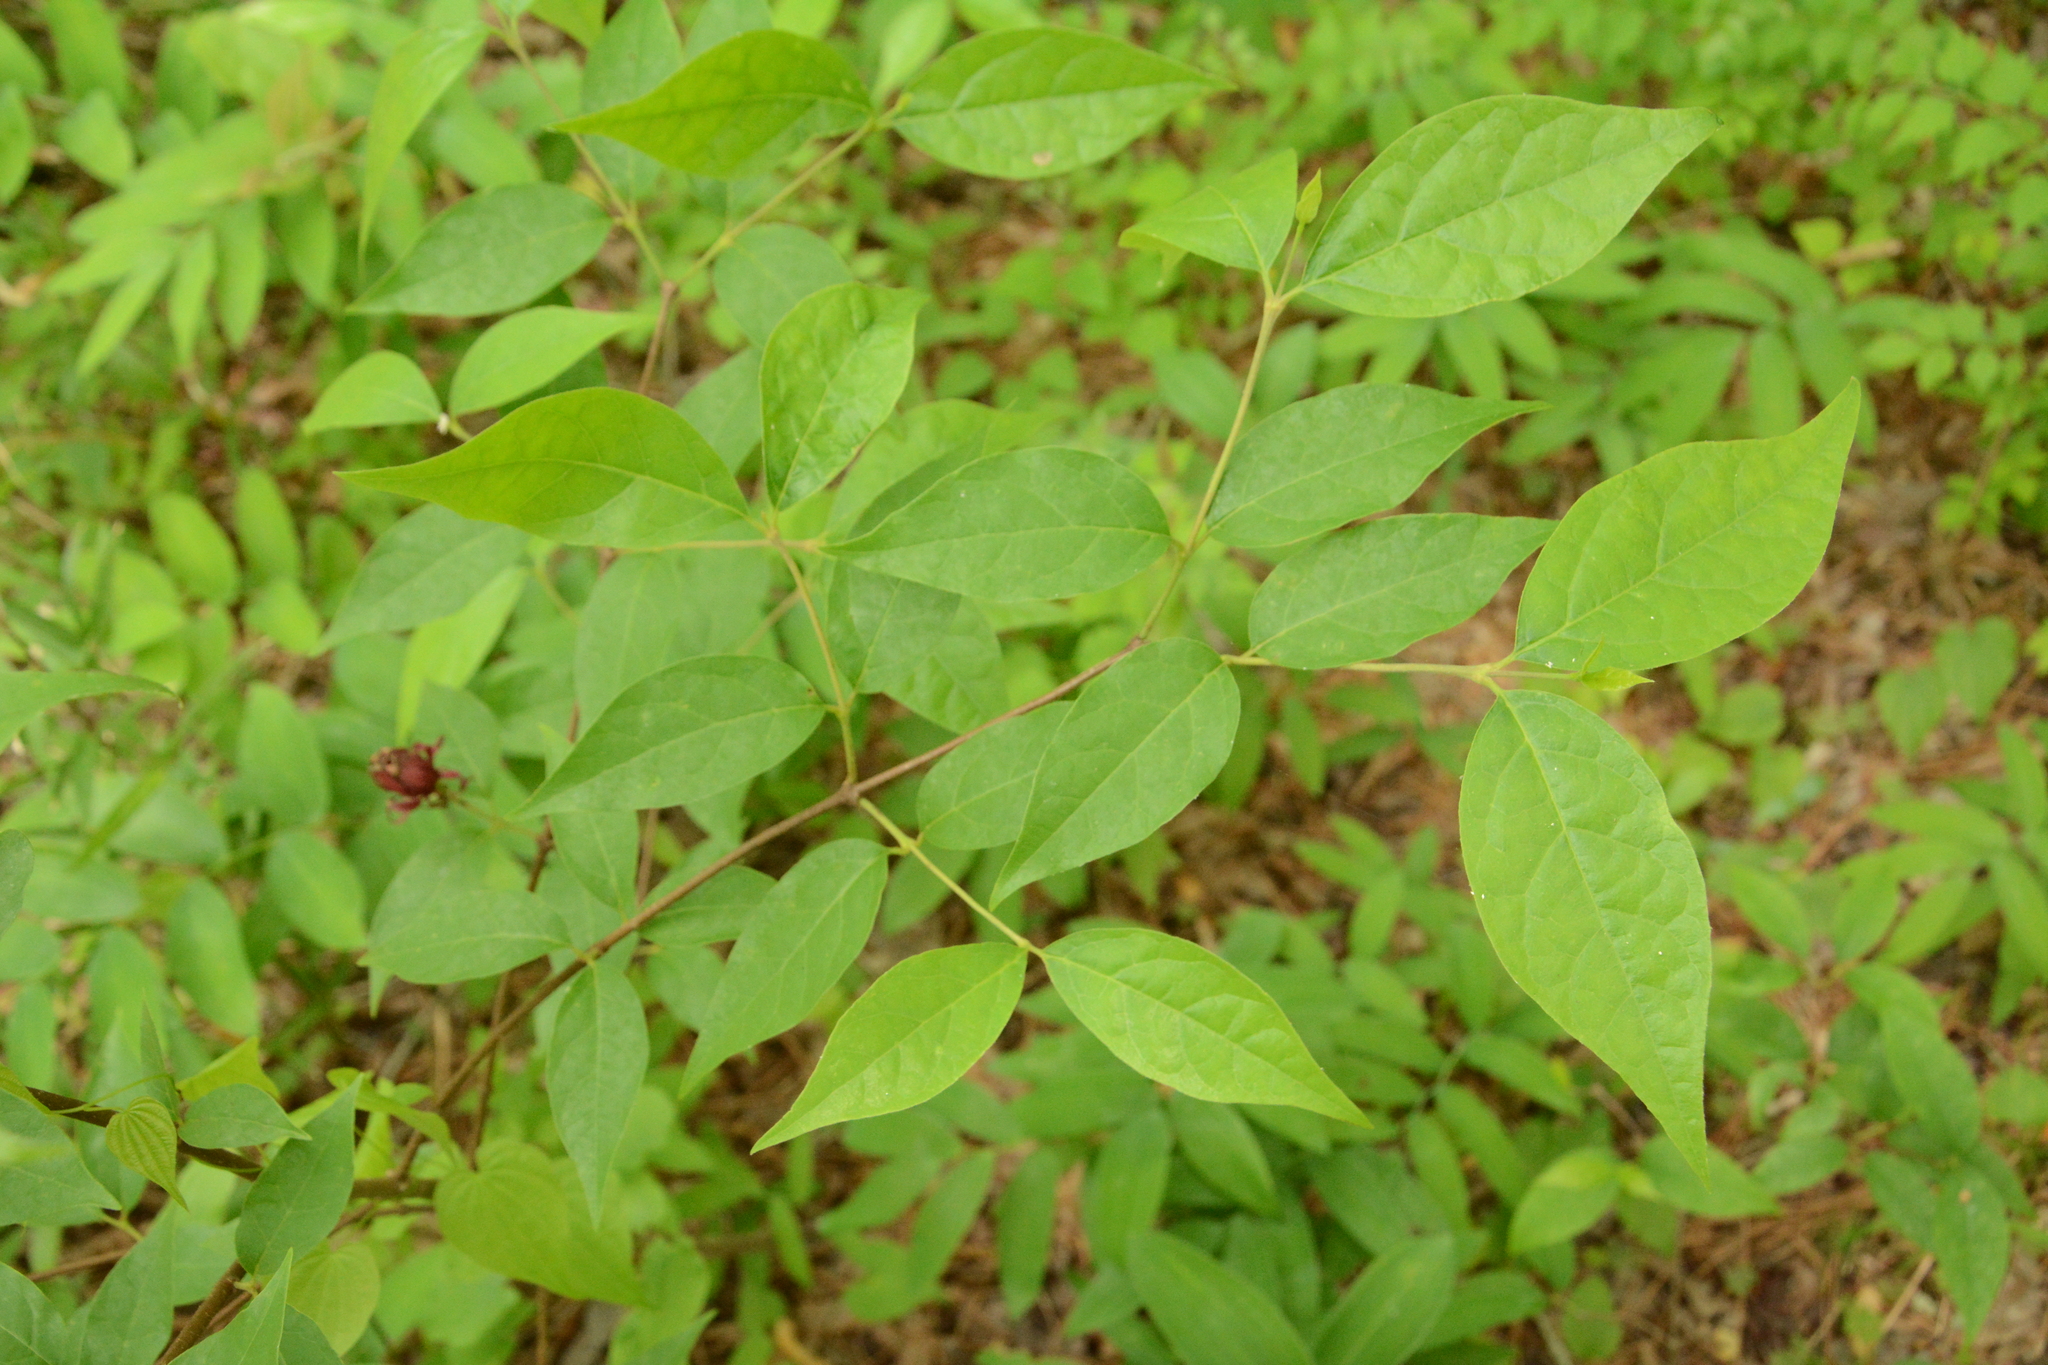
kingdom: Plantae
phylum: Tracheophyta
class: Magnoliopsida
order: Laurales
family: Calycanthaceae
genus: Calycanthus
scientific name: Calycanthus floridus
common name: Carolina-allspice
